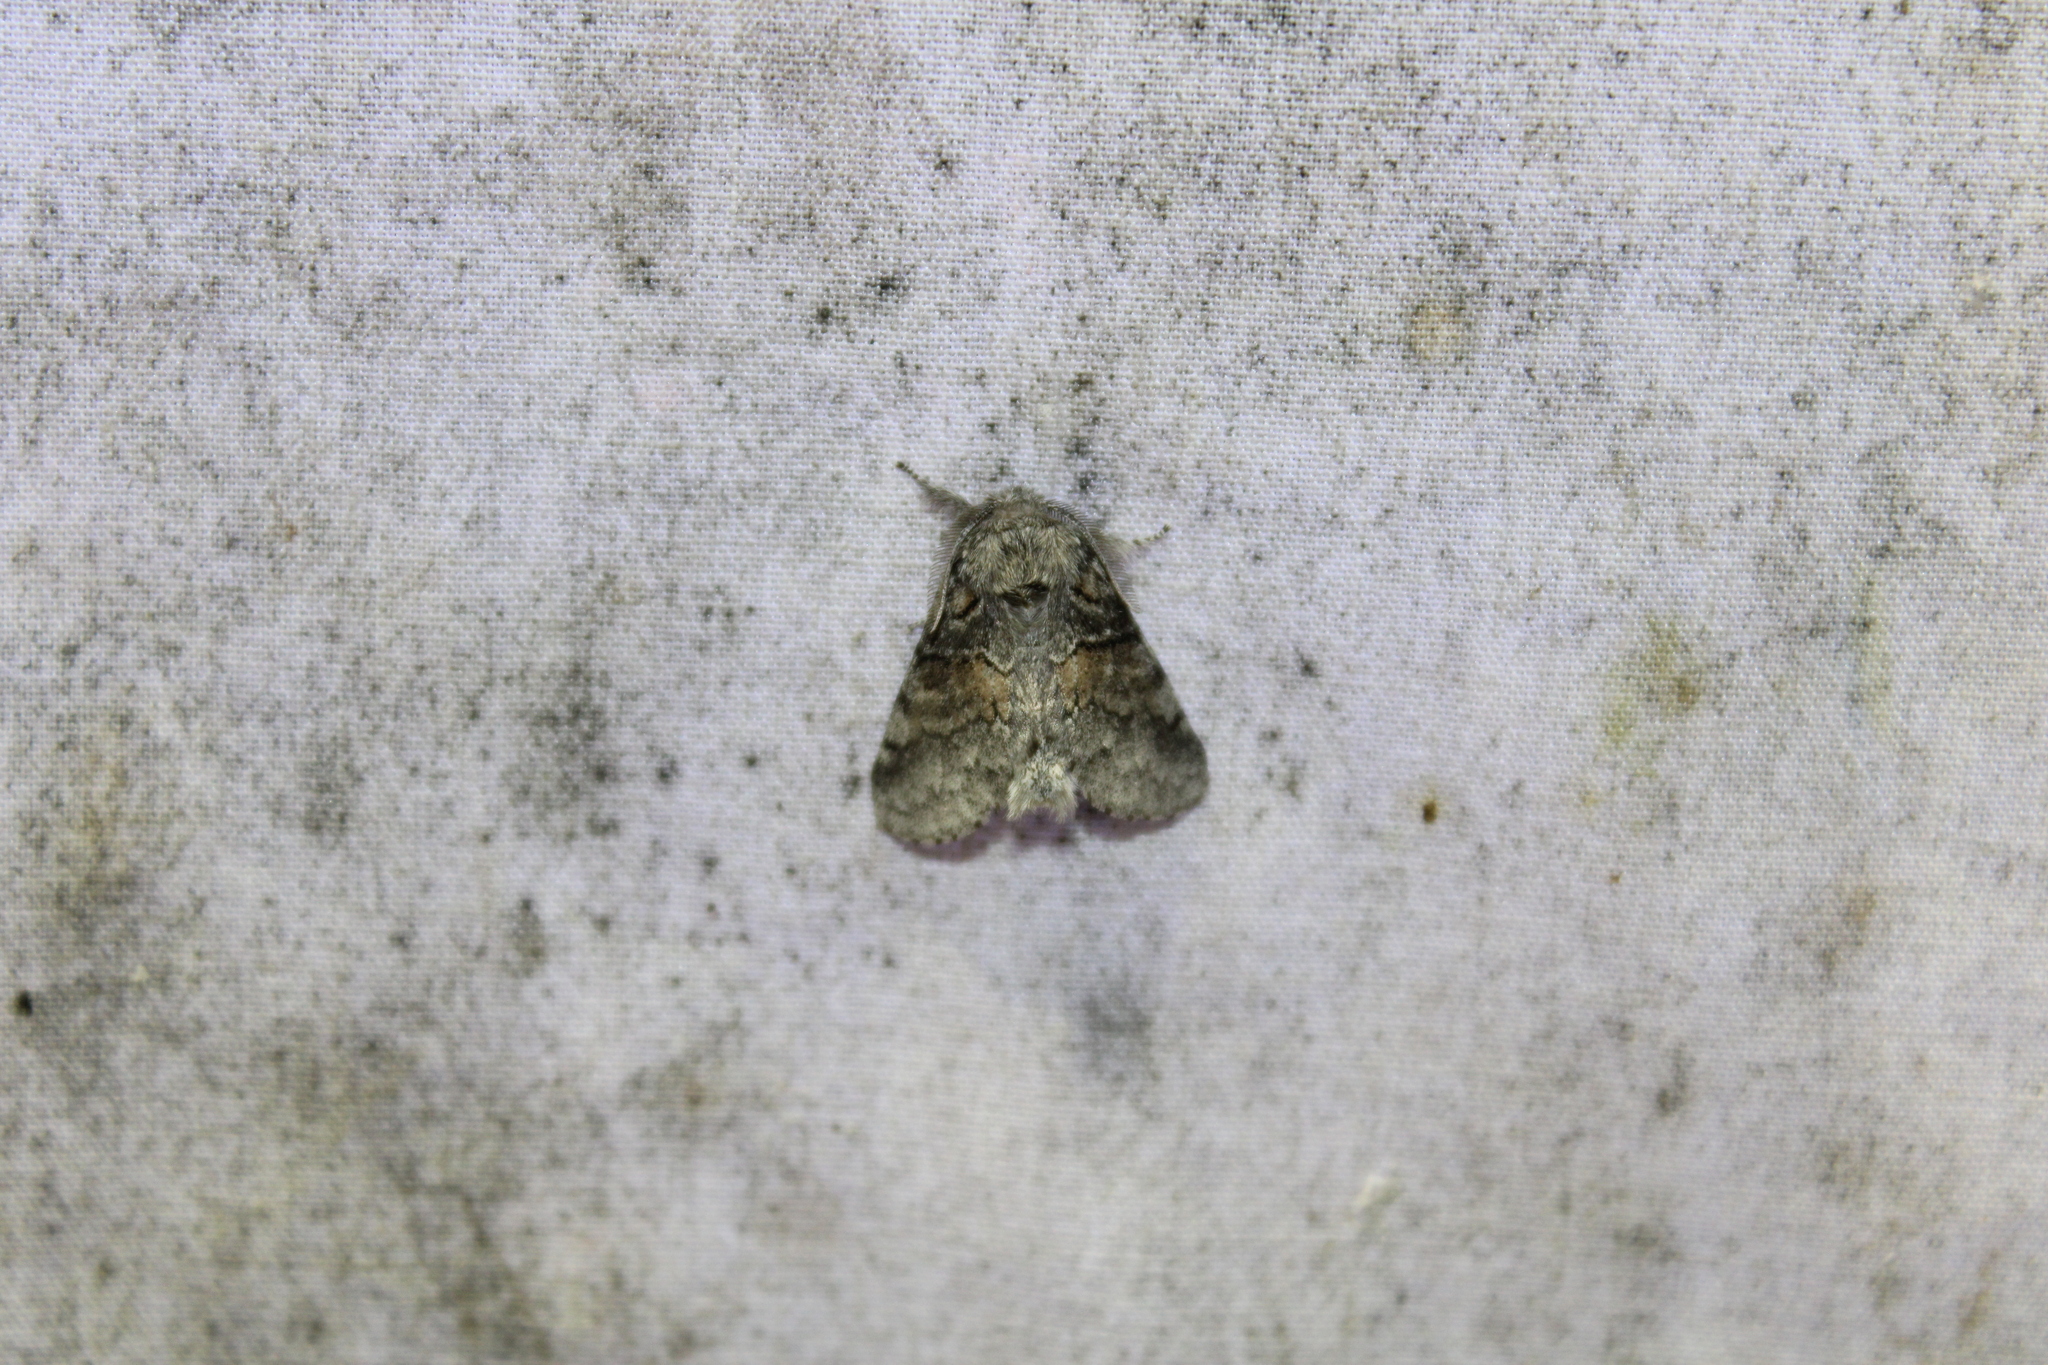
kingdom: Animalia
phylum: Arthropoda
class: Insecta
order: Lepidoptera
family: Notodontidae
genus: Gluphisia
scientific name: Gluphisia septentrionis
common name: Common gluphisia
